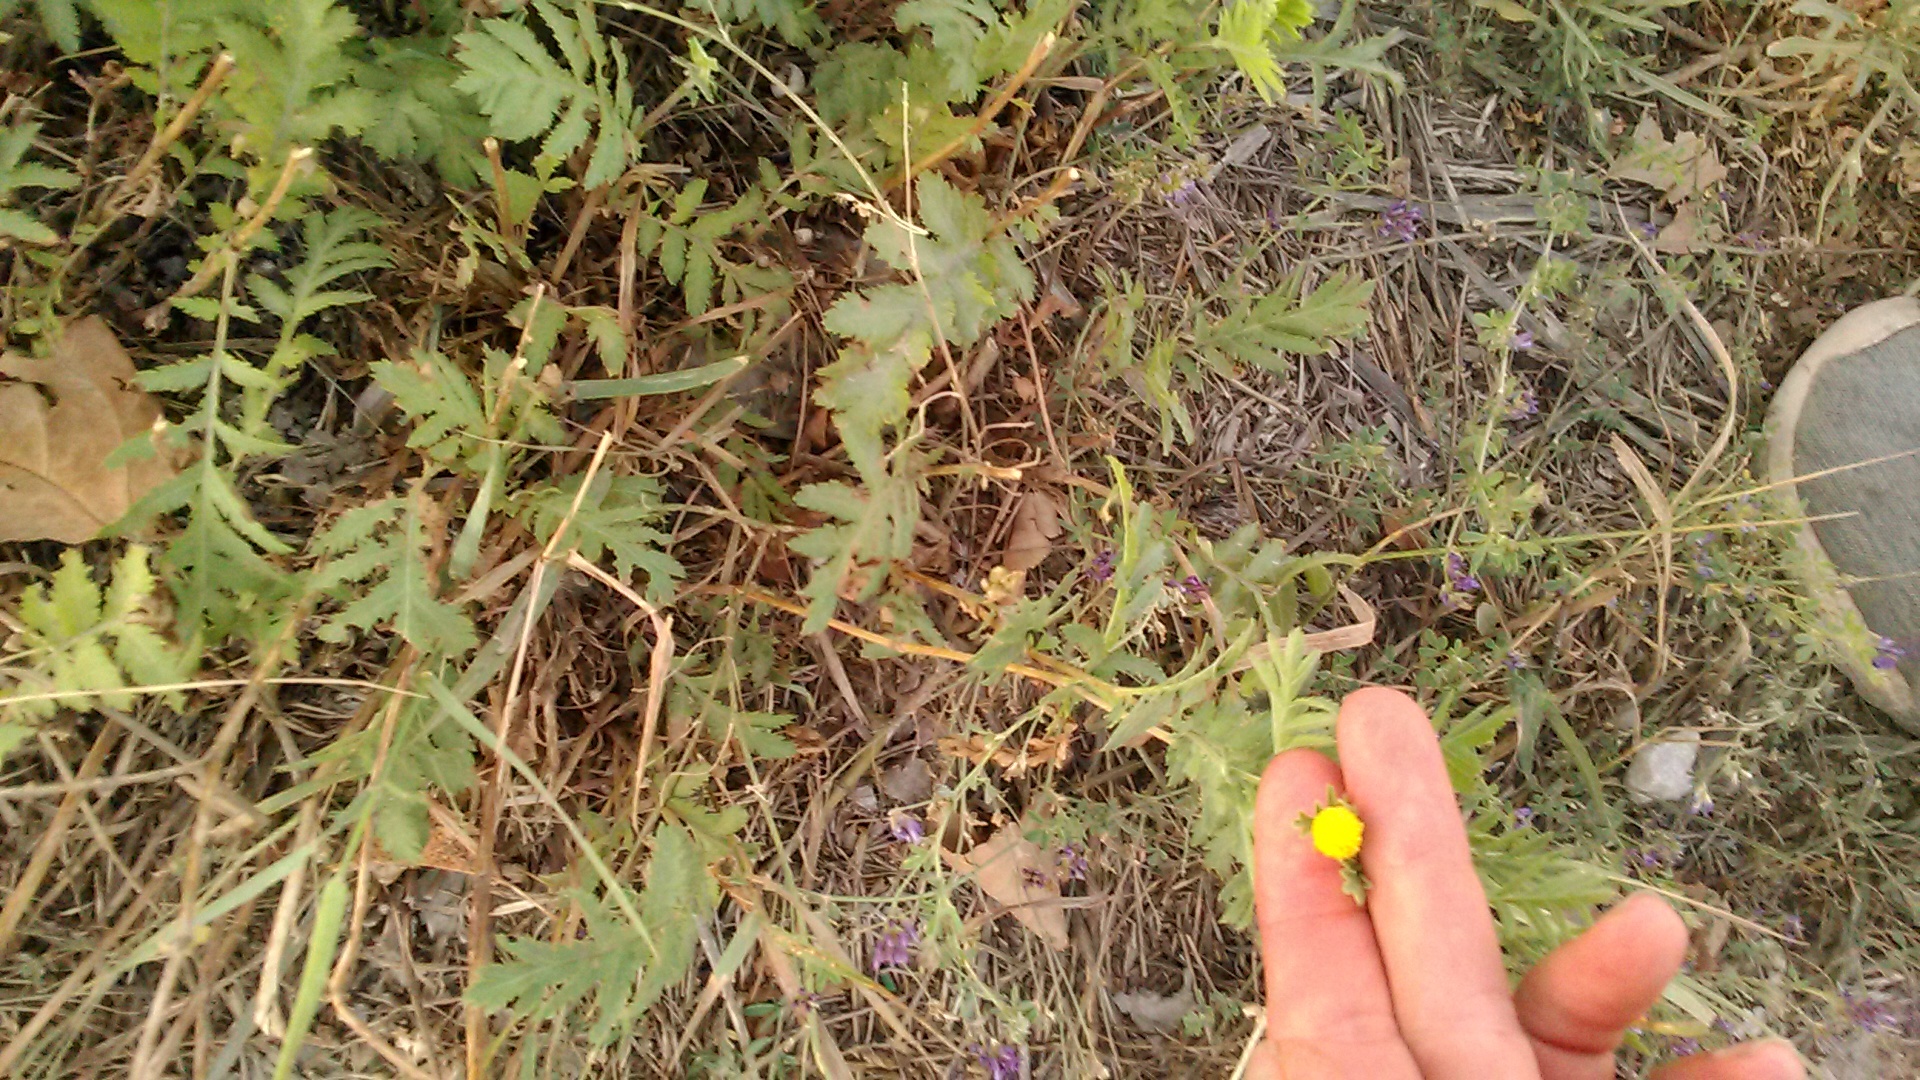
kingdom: Plantae
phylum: Tracheophyta
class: Magnoliopsida
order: Asterales
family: Asteraceae
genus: Tanacetum
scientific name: Tanacetum vulgare
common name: Common tansy
